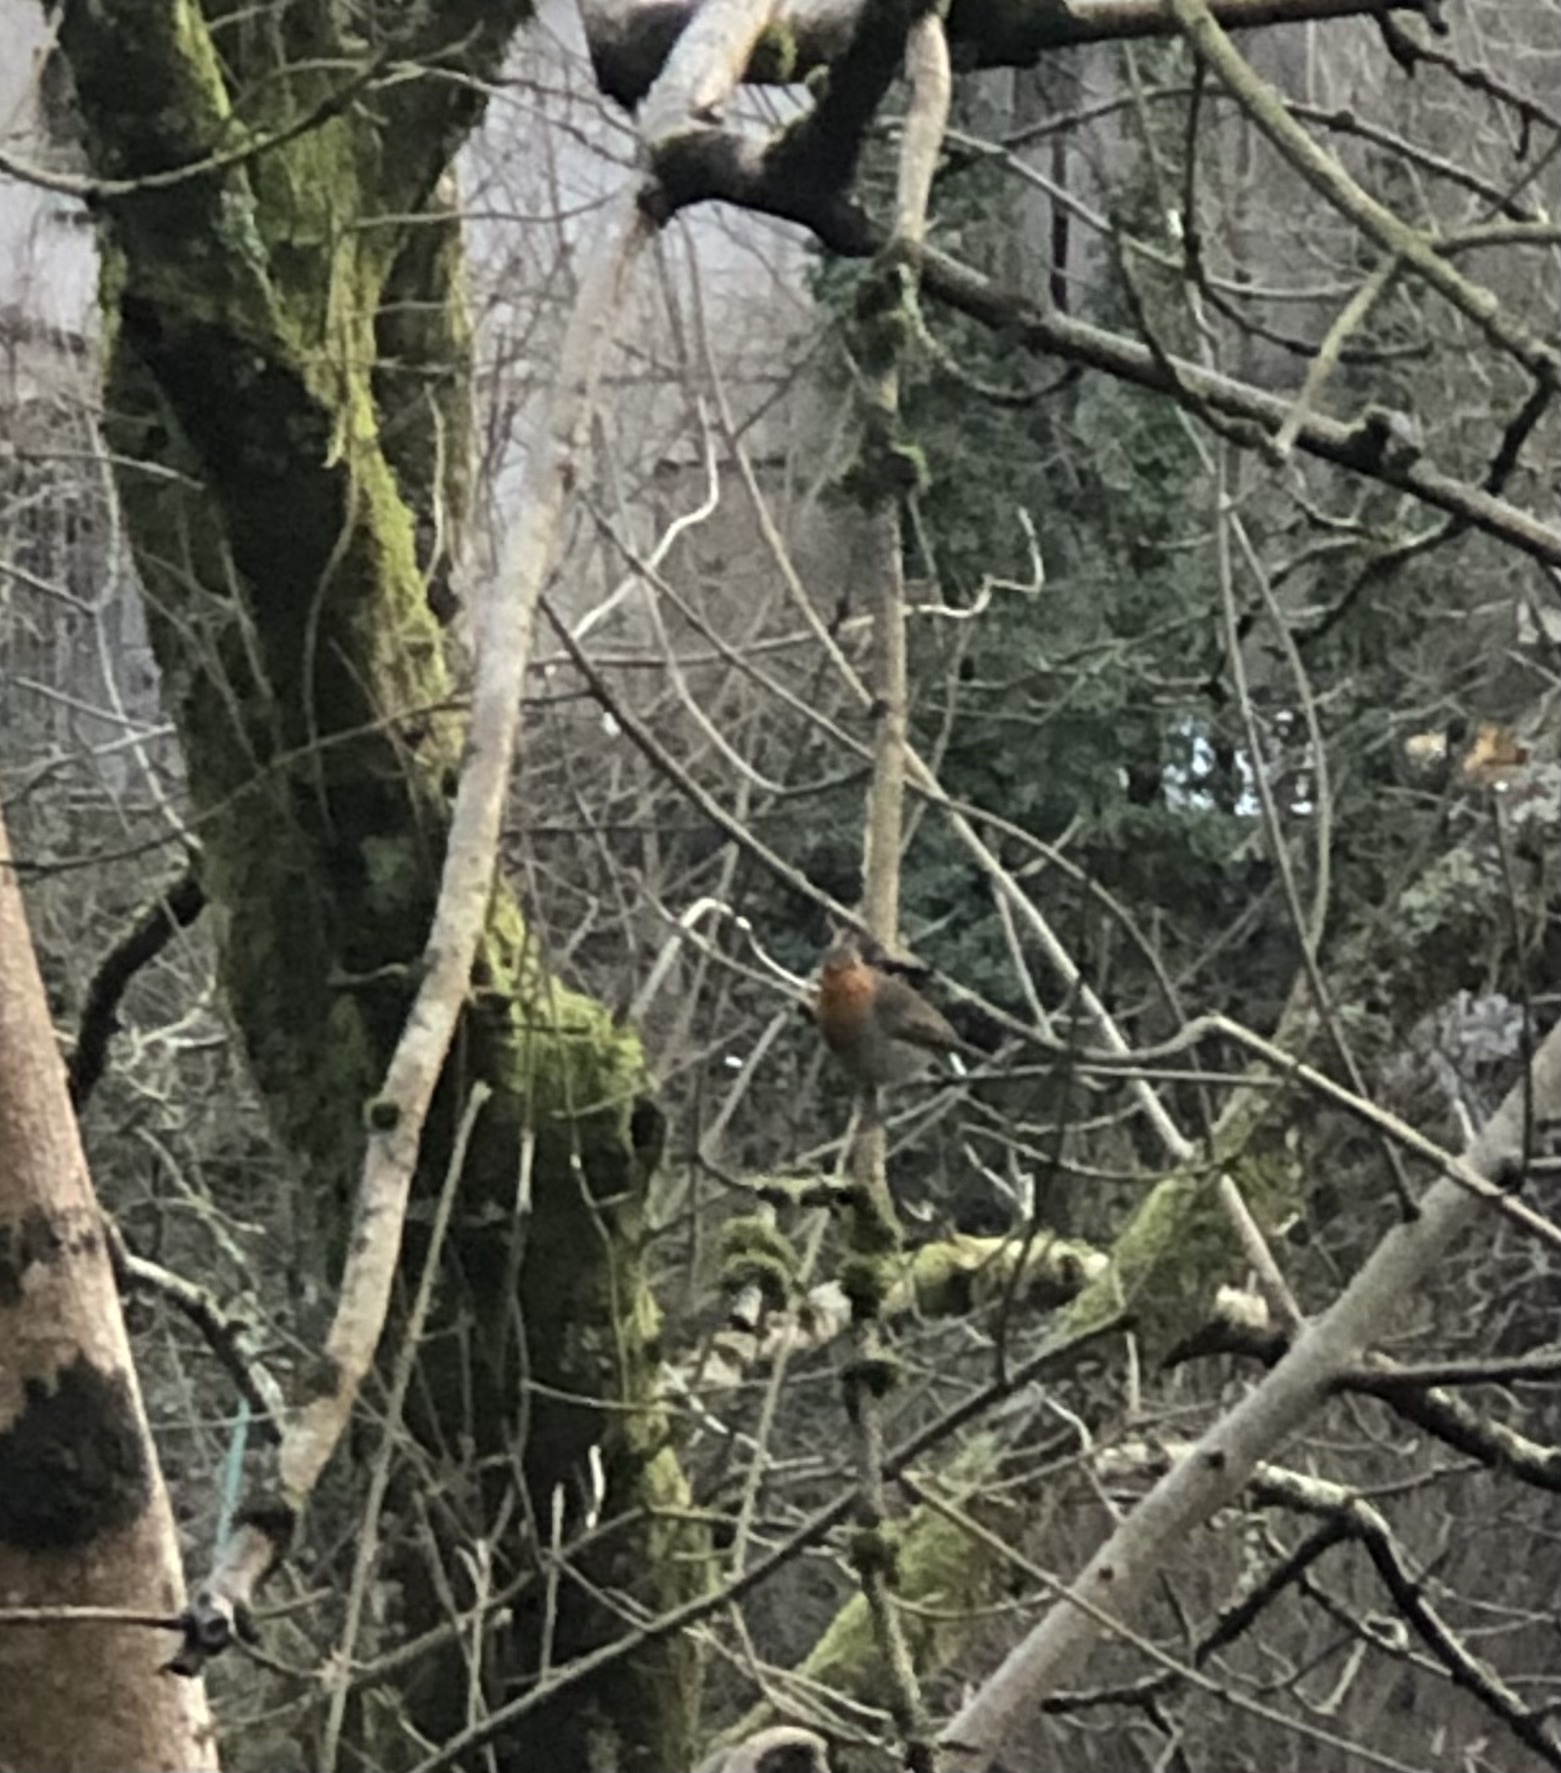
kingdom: Animalia
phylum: Chordata
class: Aves
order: Passeriformes
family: Muscicapidae
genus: Erithacus
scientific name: Erithacus rubecula
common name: European robin
